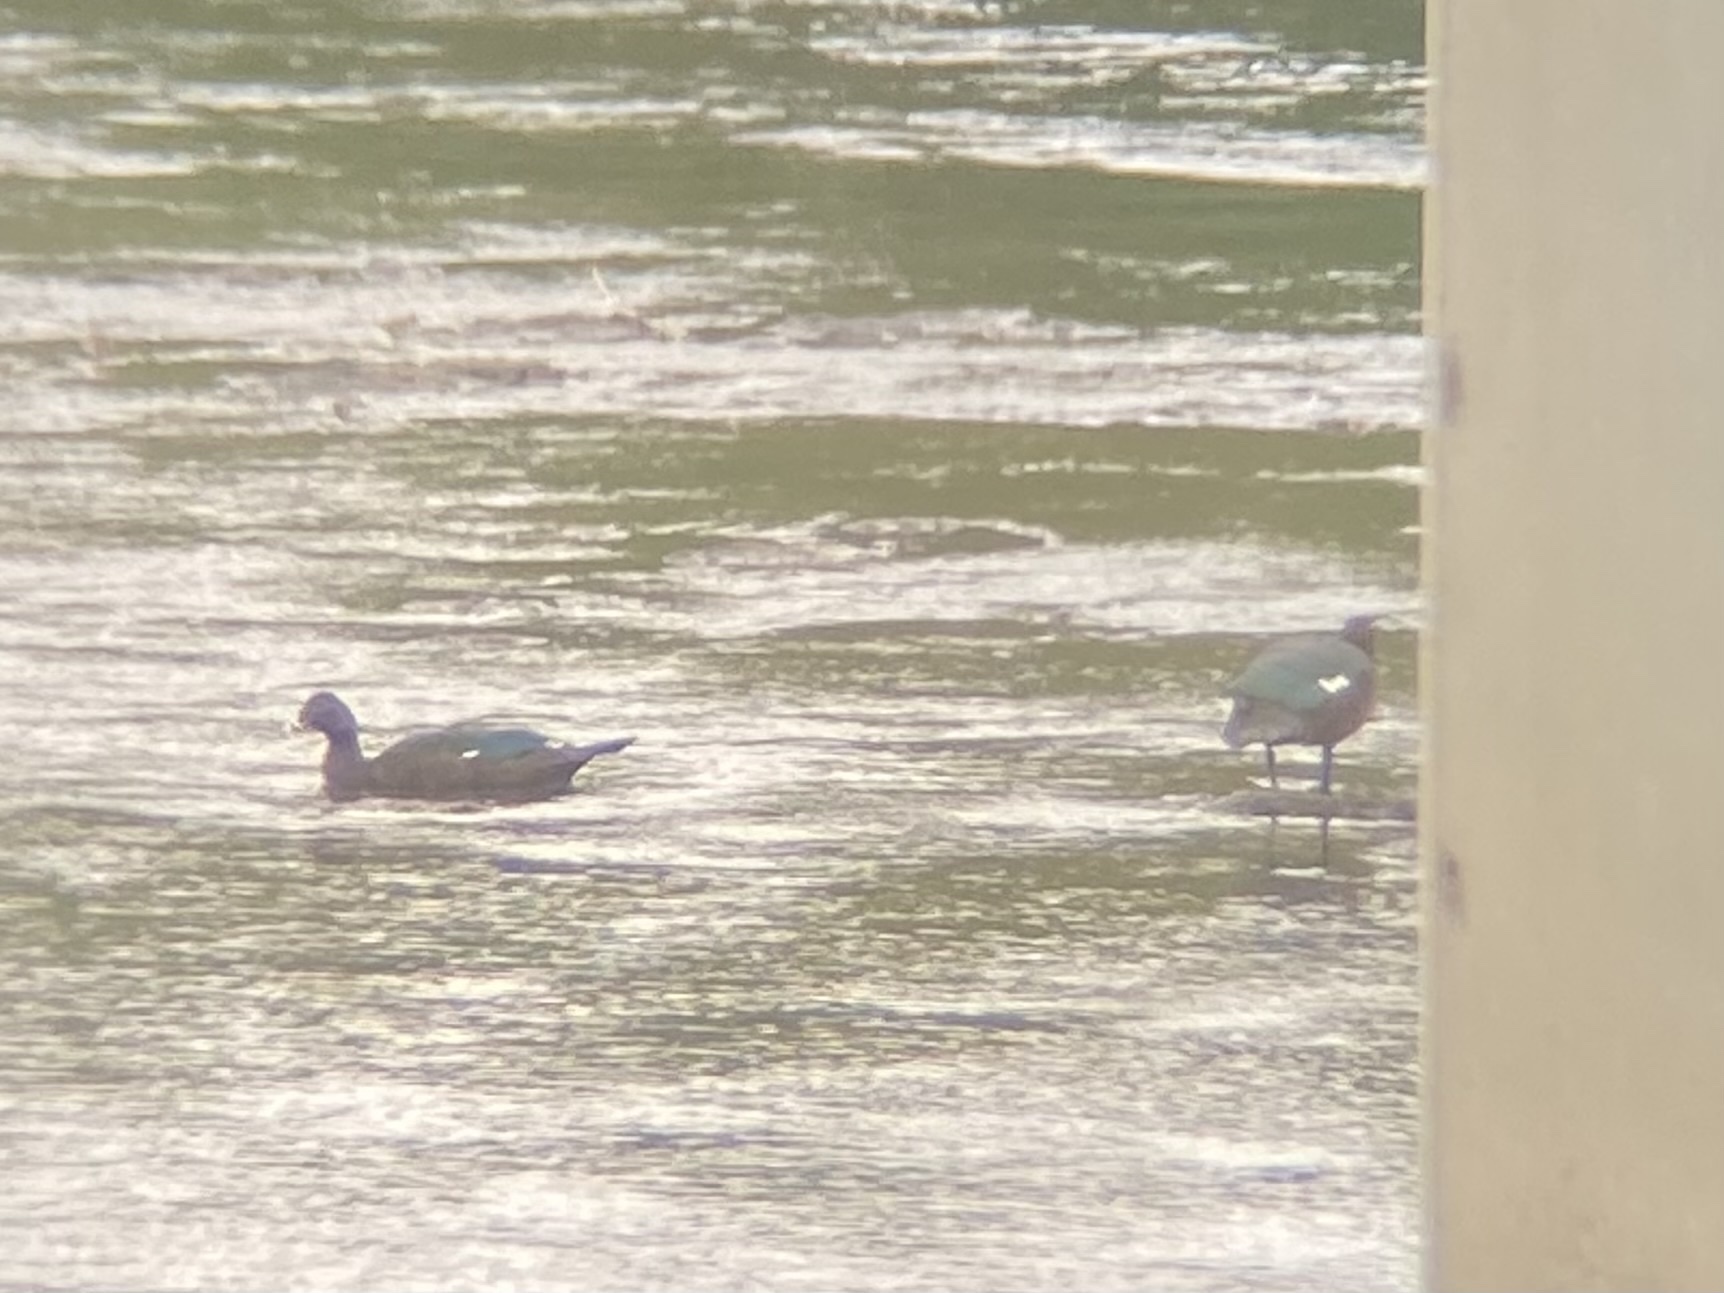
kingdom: Animalia
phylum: Chordata
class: Aves
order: Anseriformes
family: Anatidae
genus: Cairina
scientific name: Cairina moschata
